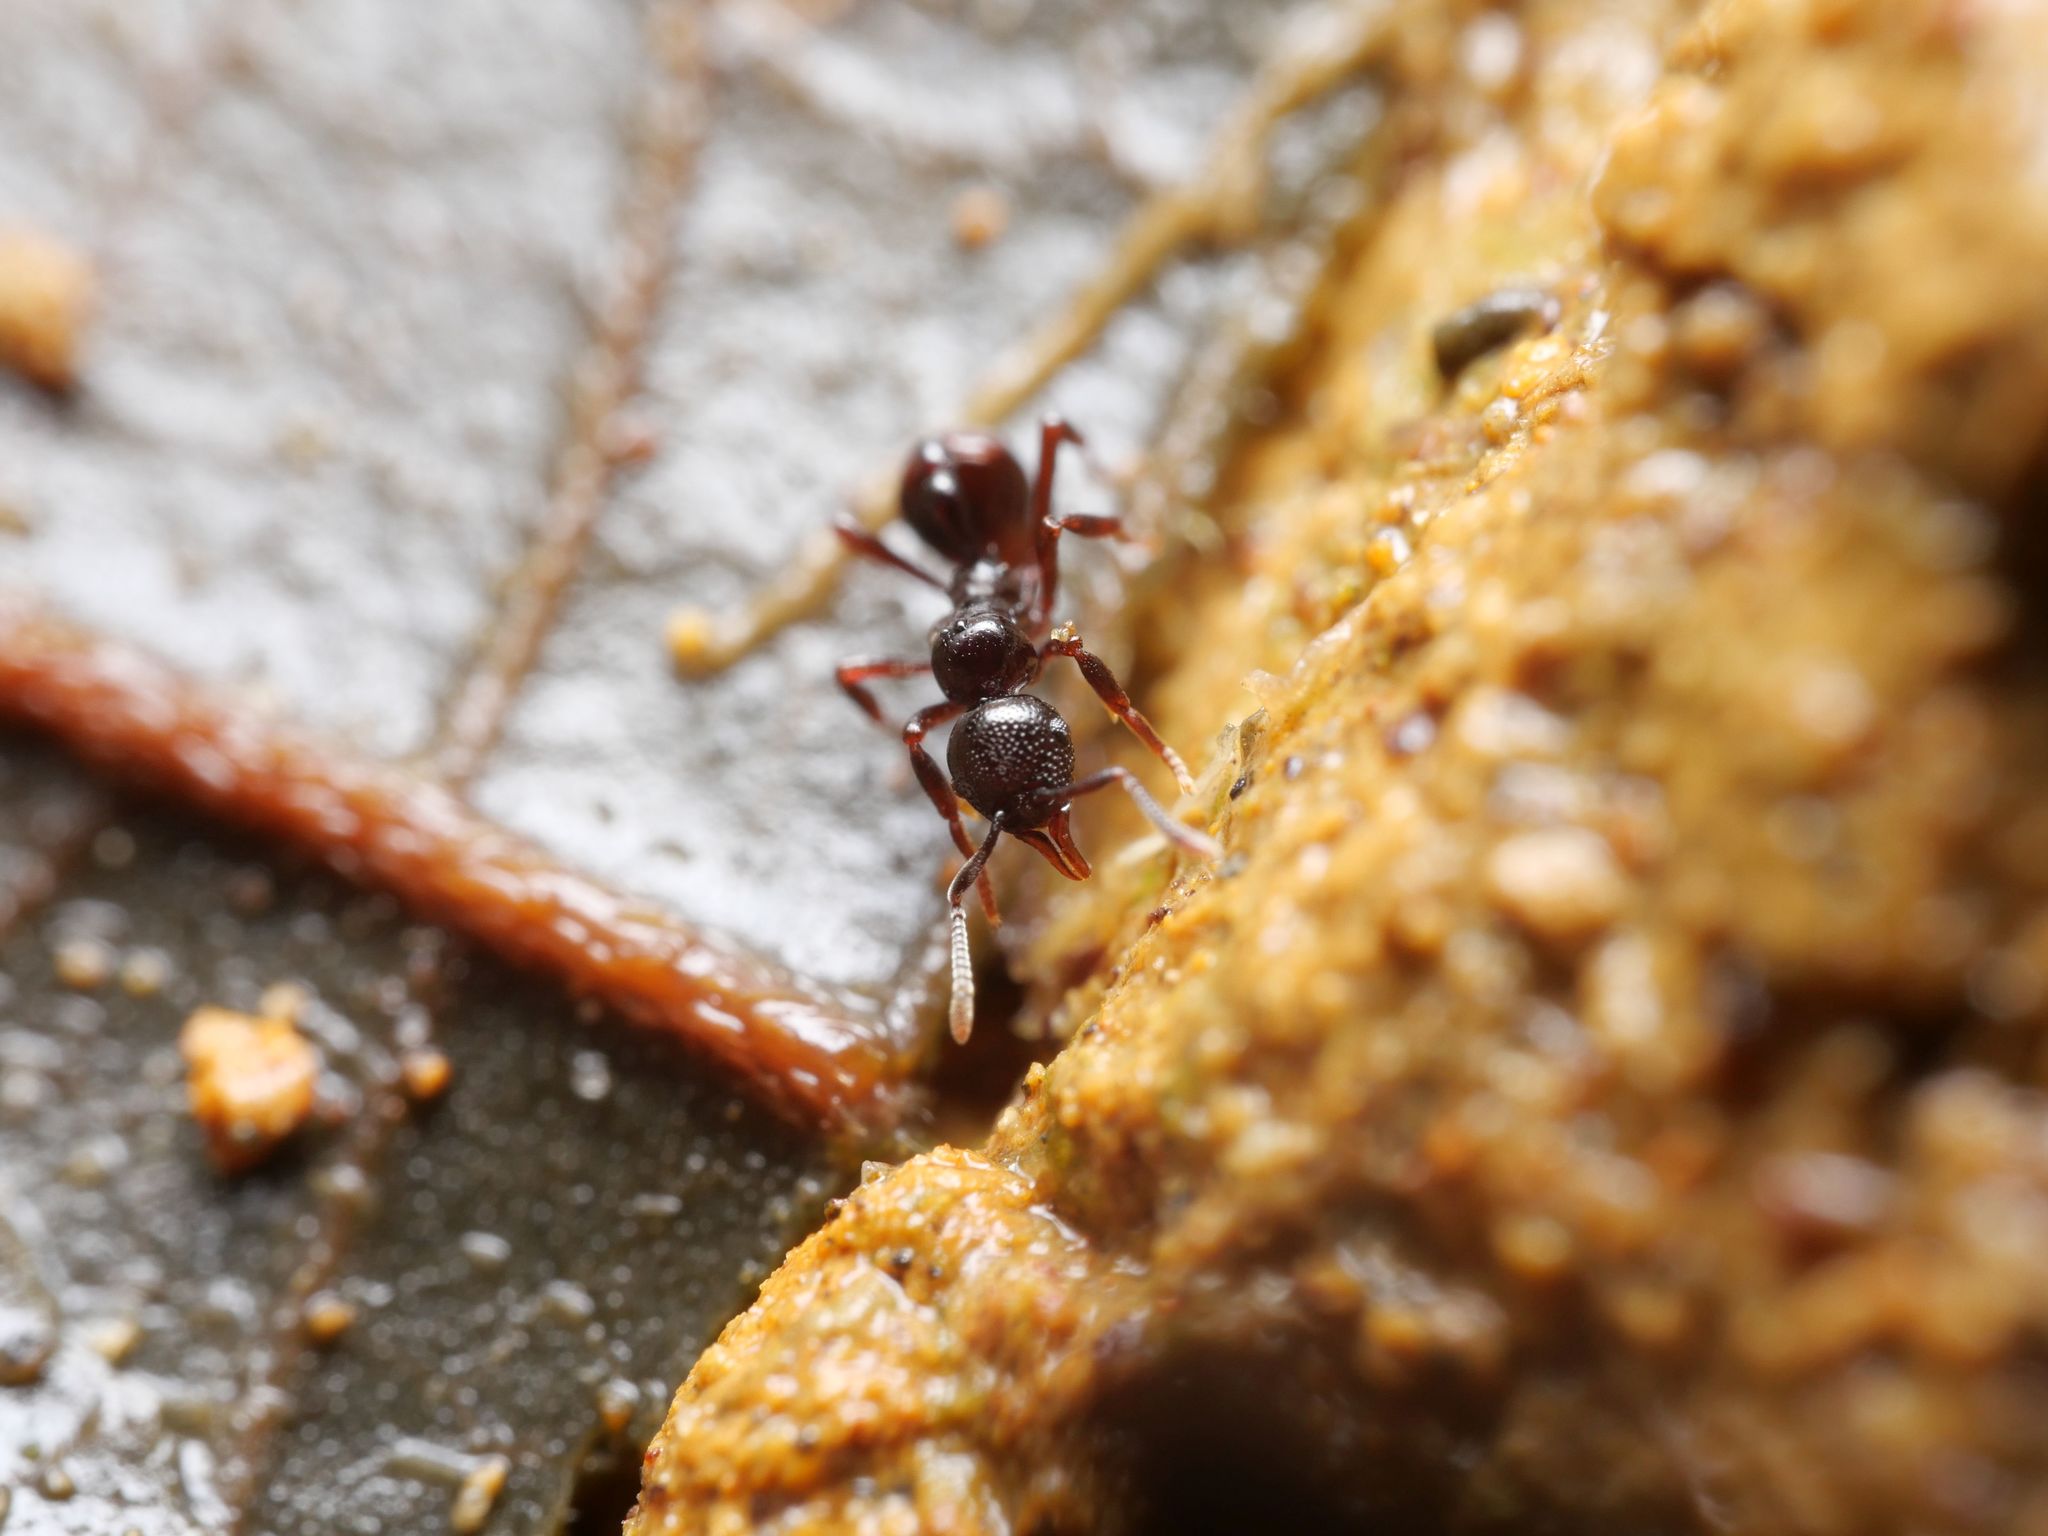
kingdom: Animalia
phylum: Arthropoda
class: Insecta
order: Hymenoptera
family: Formicidae
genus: Lenomyrmex
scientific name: Lenomyrmex foveolatus
